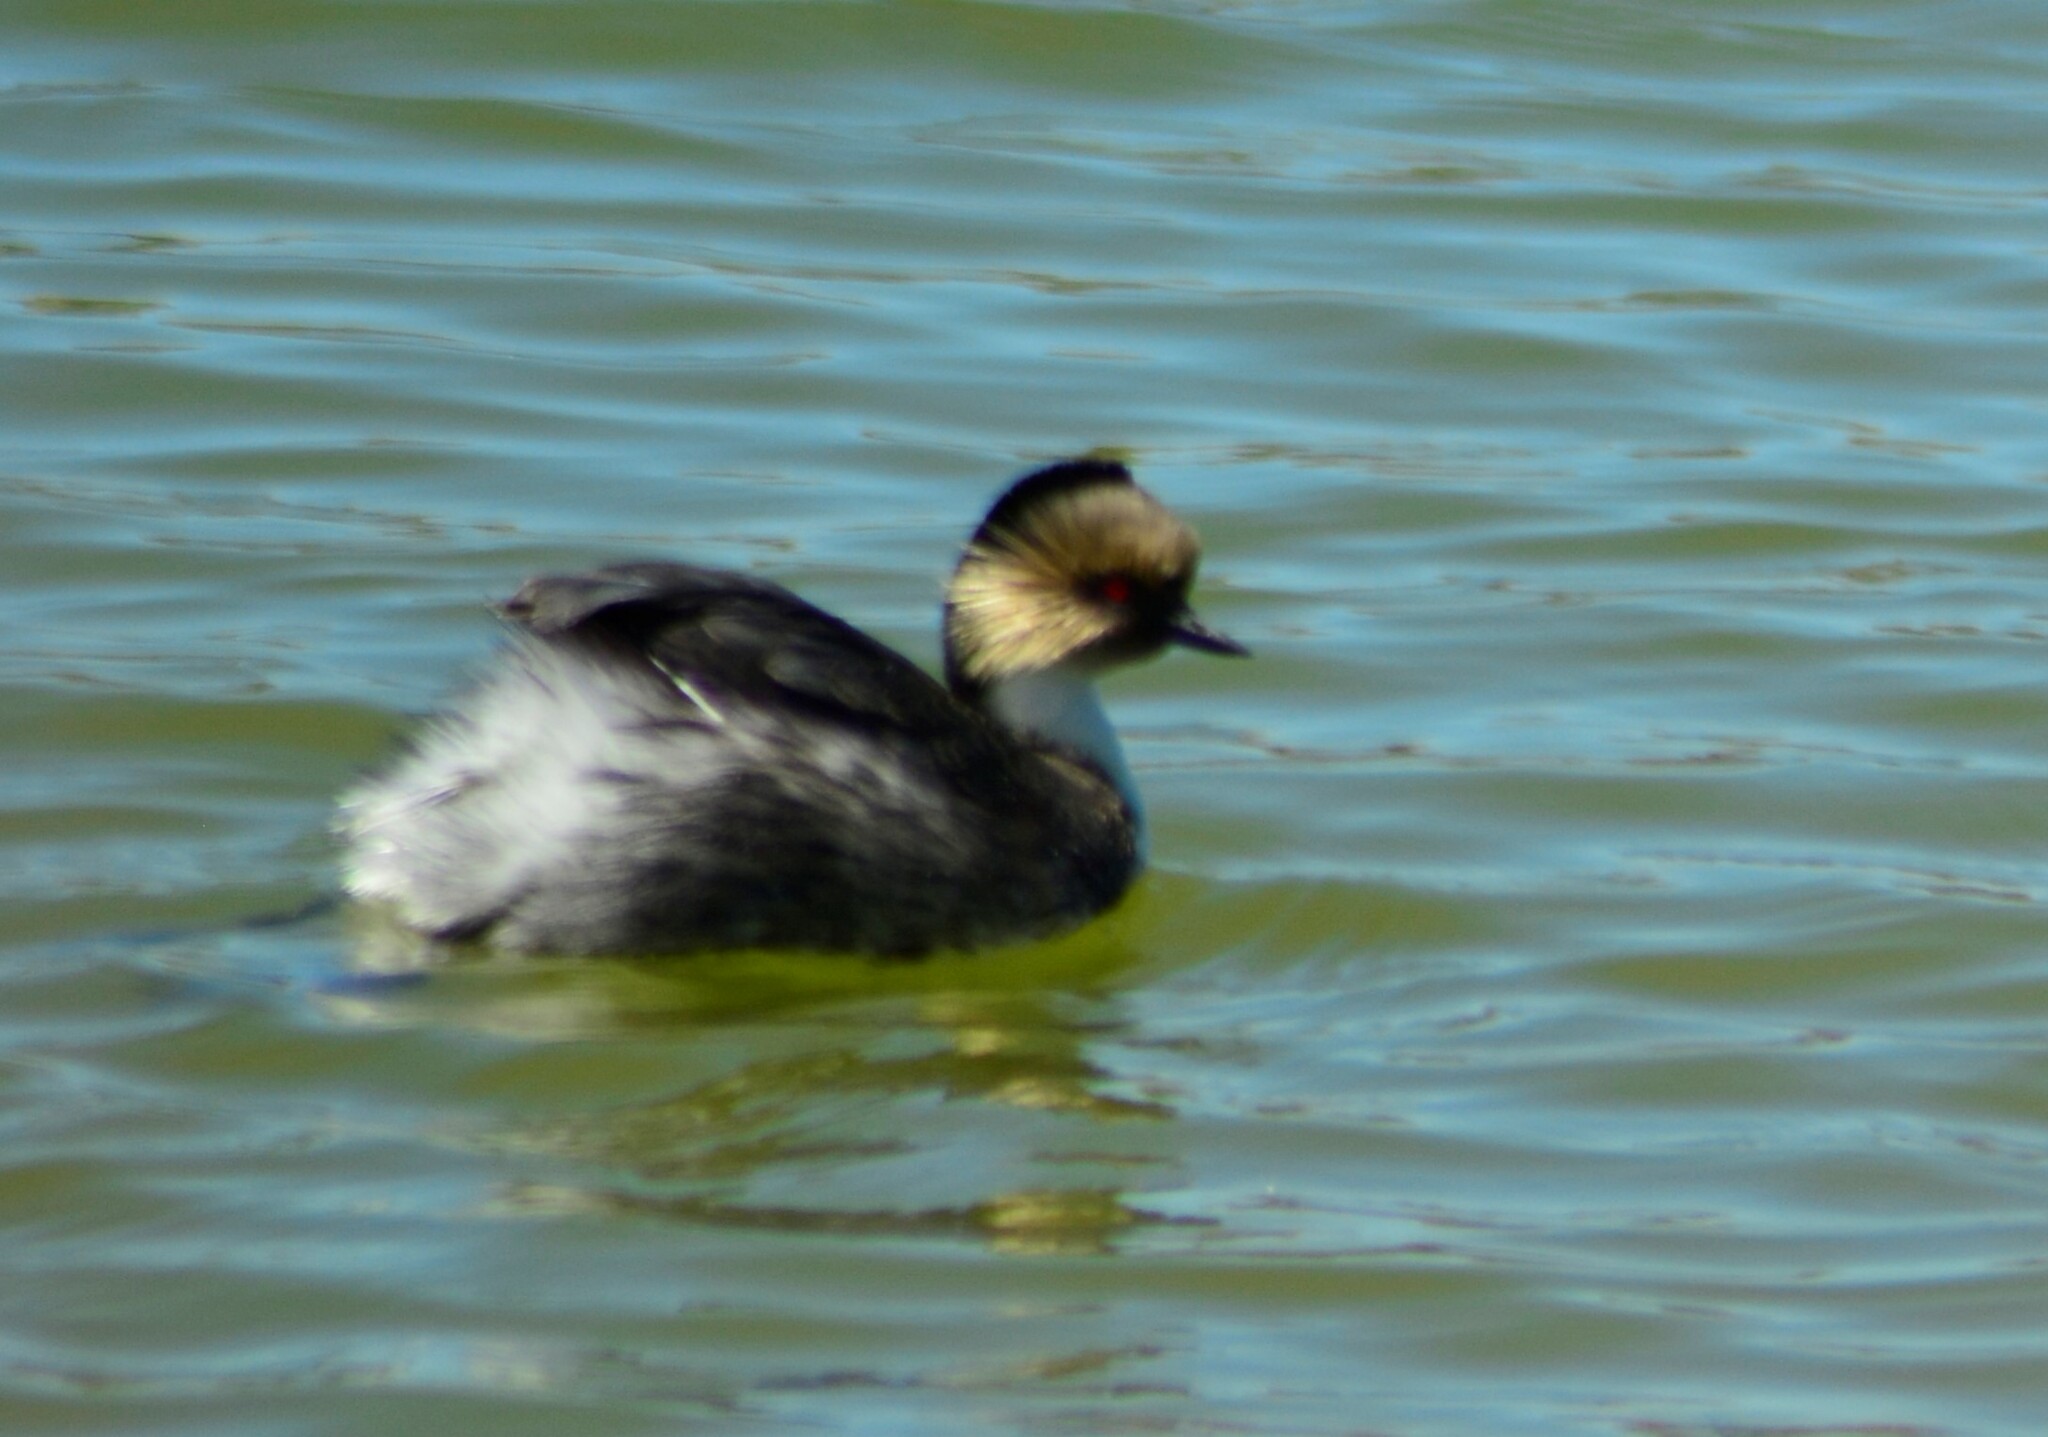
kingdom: Animalia
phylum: Chordata
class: Aves
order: Podicipediformes
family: Podicipedidae
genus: Podiceps
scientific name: Podiceps occipitalis
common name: Silvery grebe
